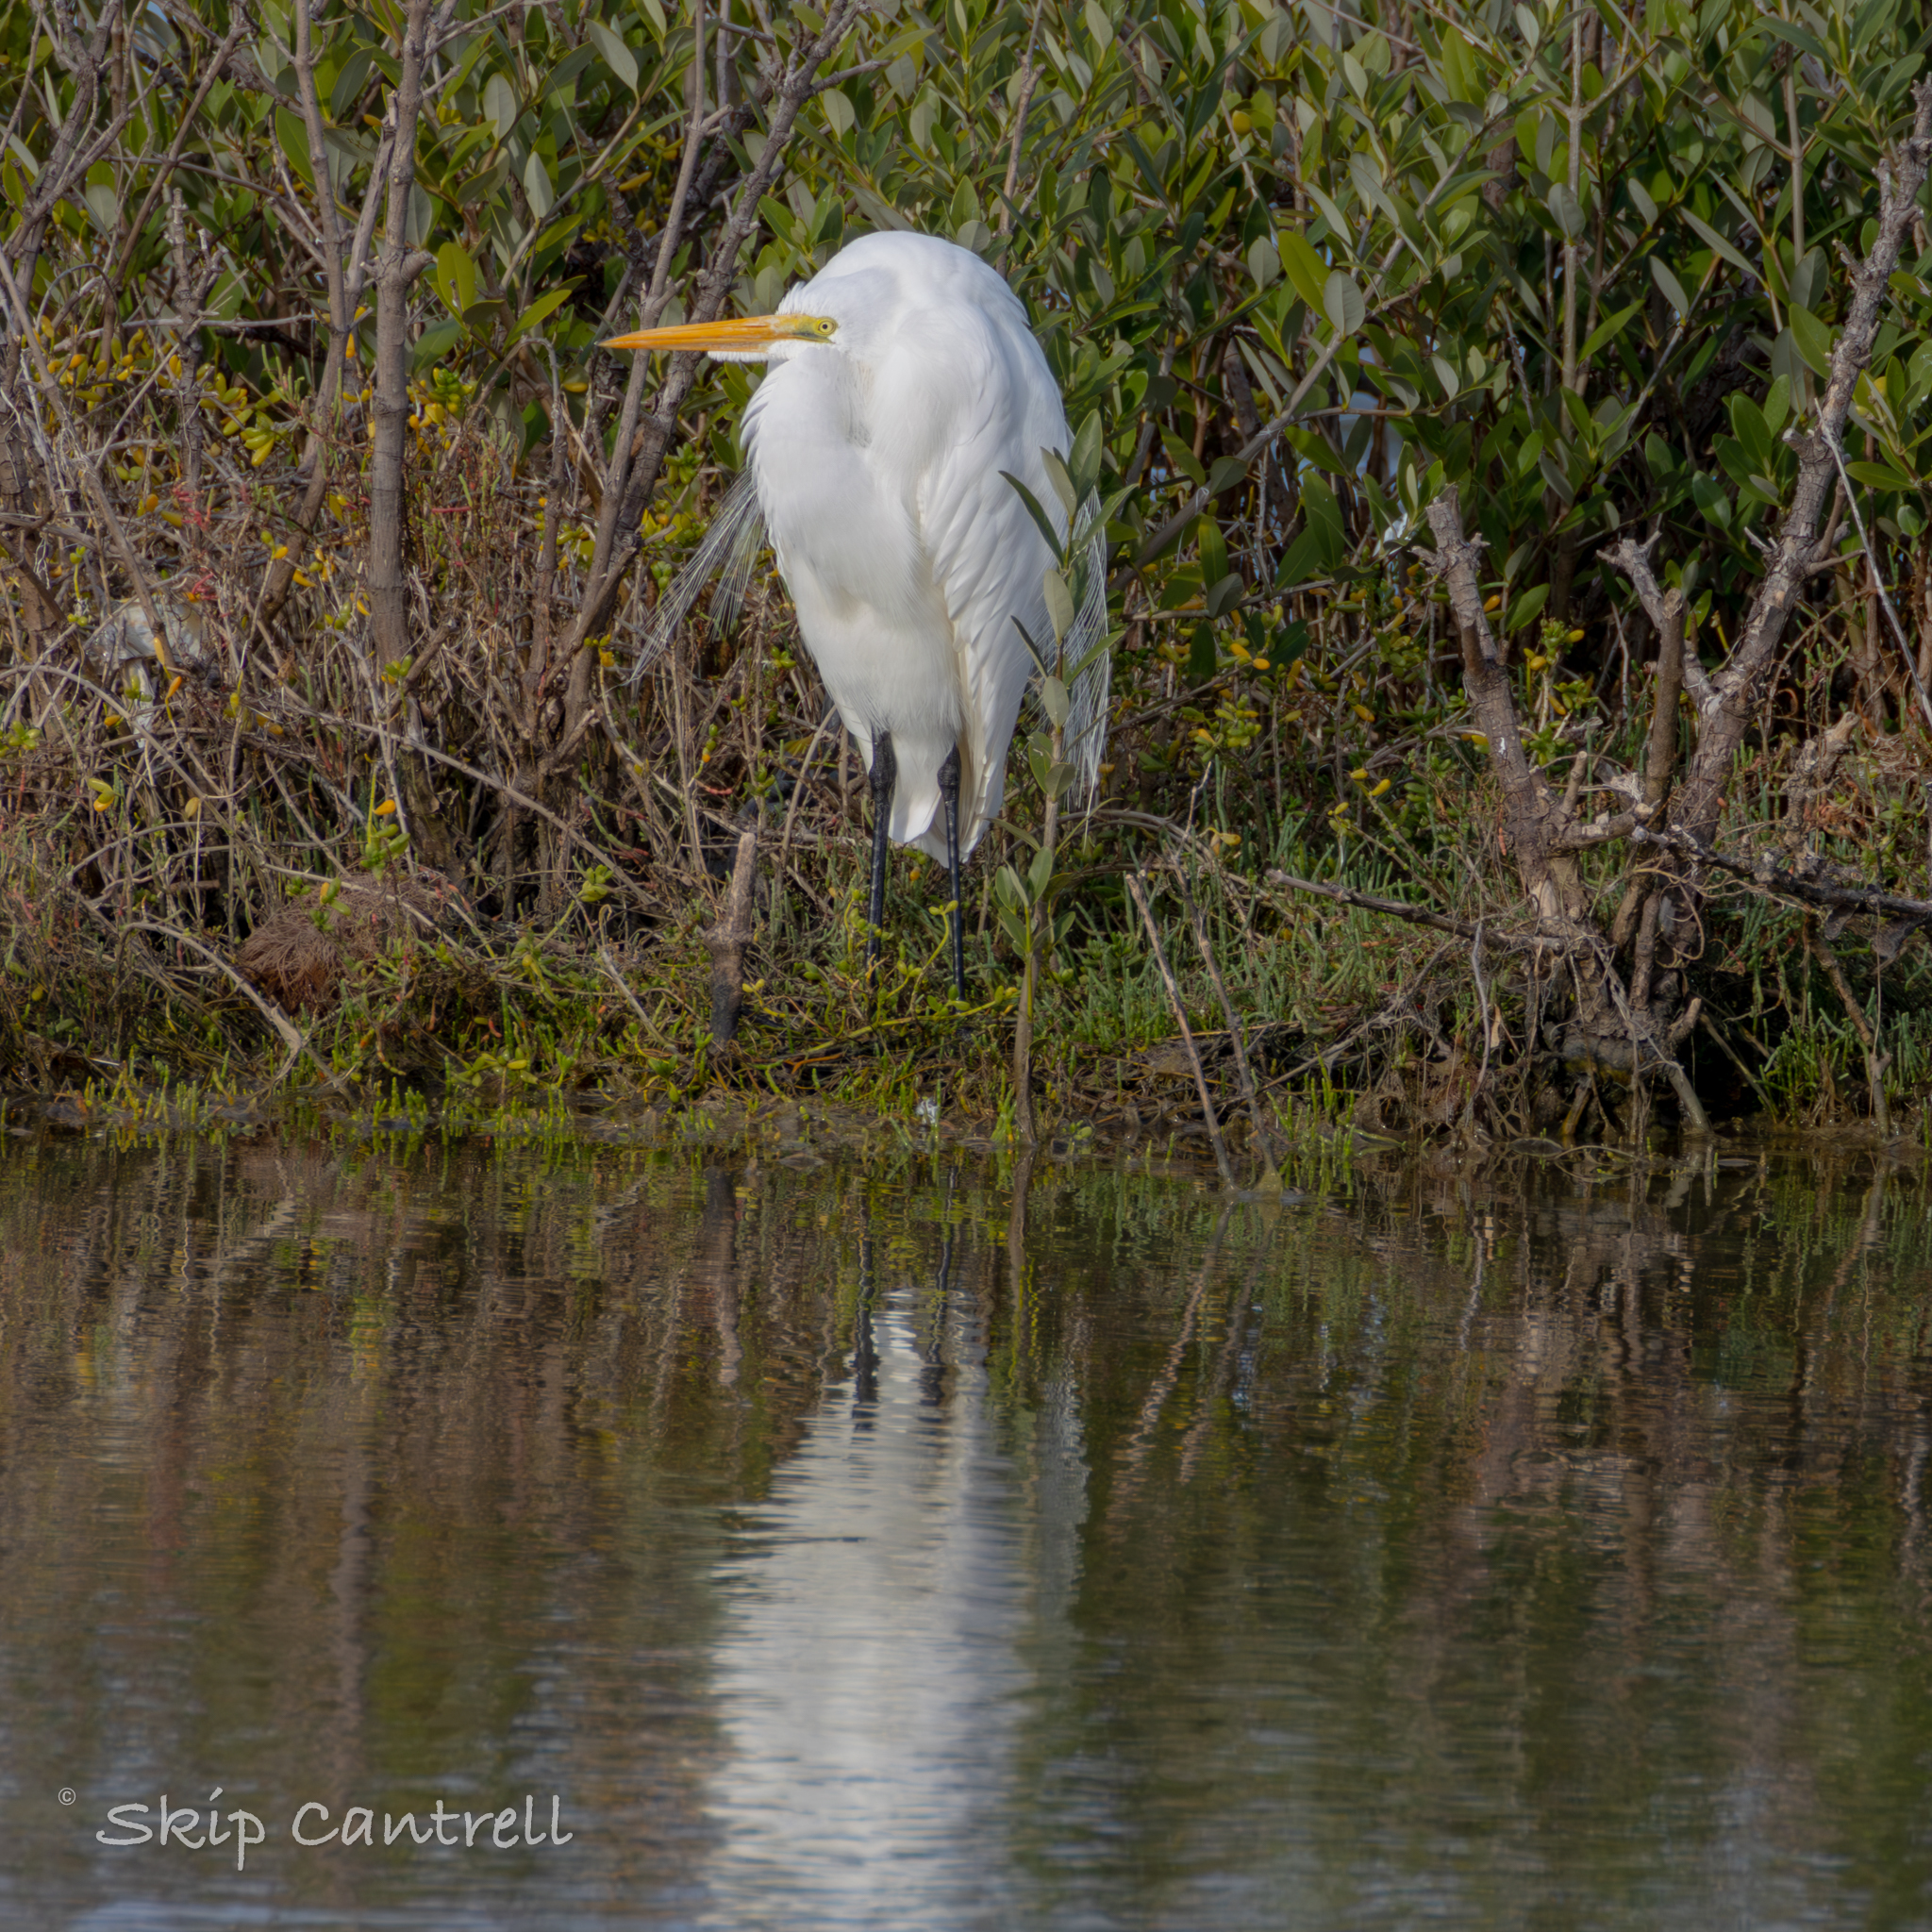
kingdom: Animalia
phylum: Chordata
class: Aves
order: Pelecaniformes
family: Ardeidae
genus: Ardea
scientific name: Ardea alba
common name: Great egret
